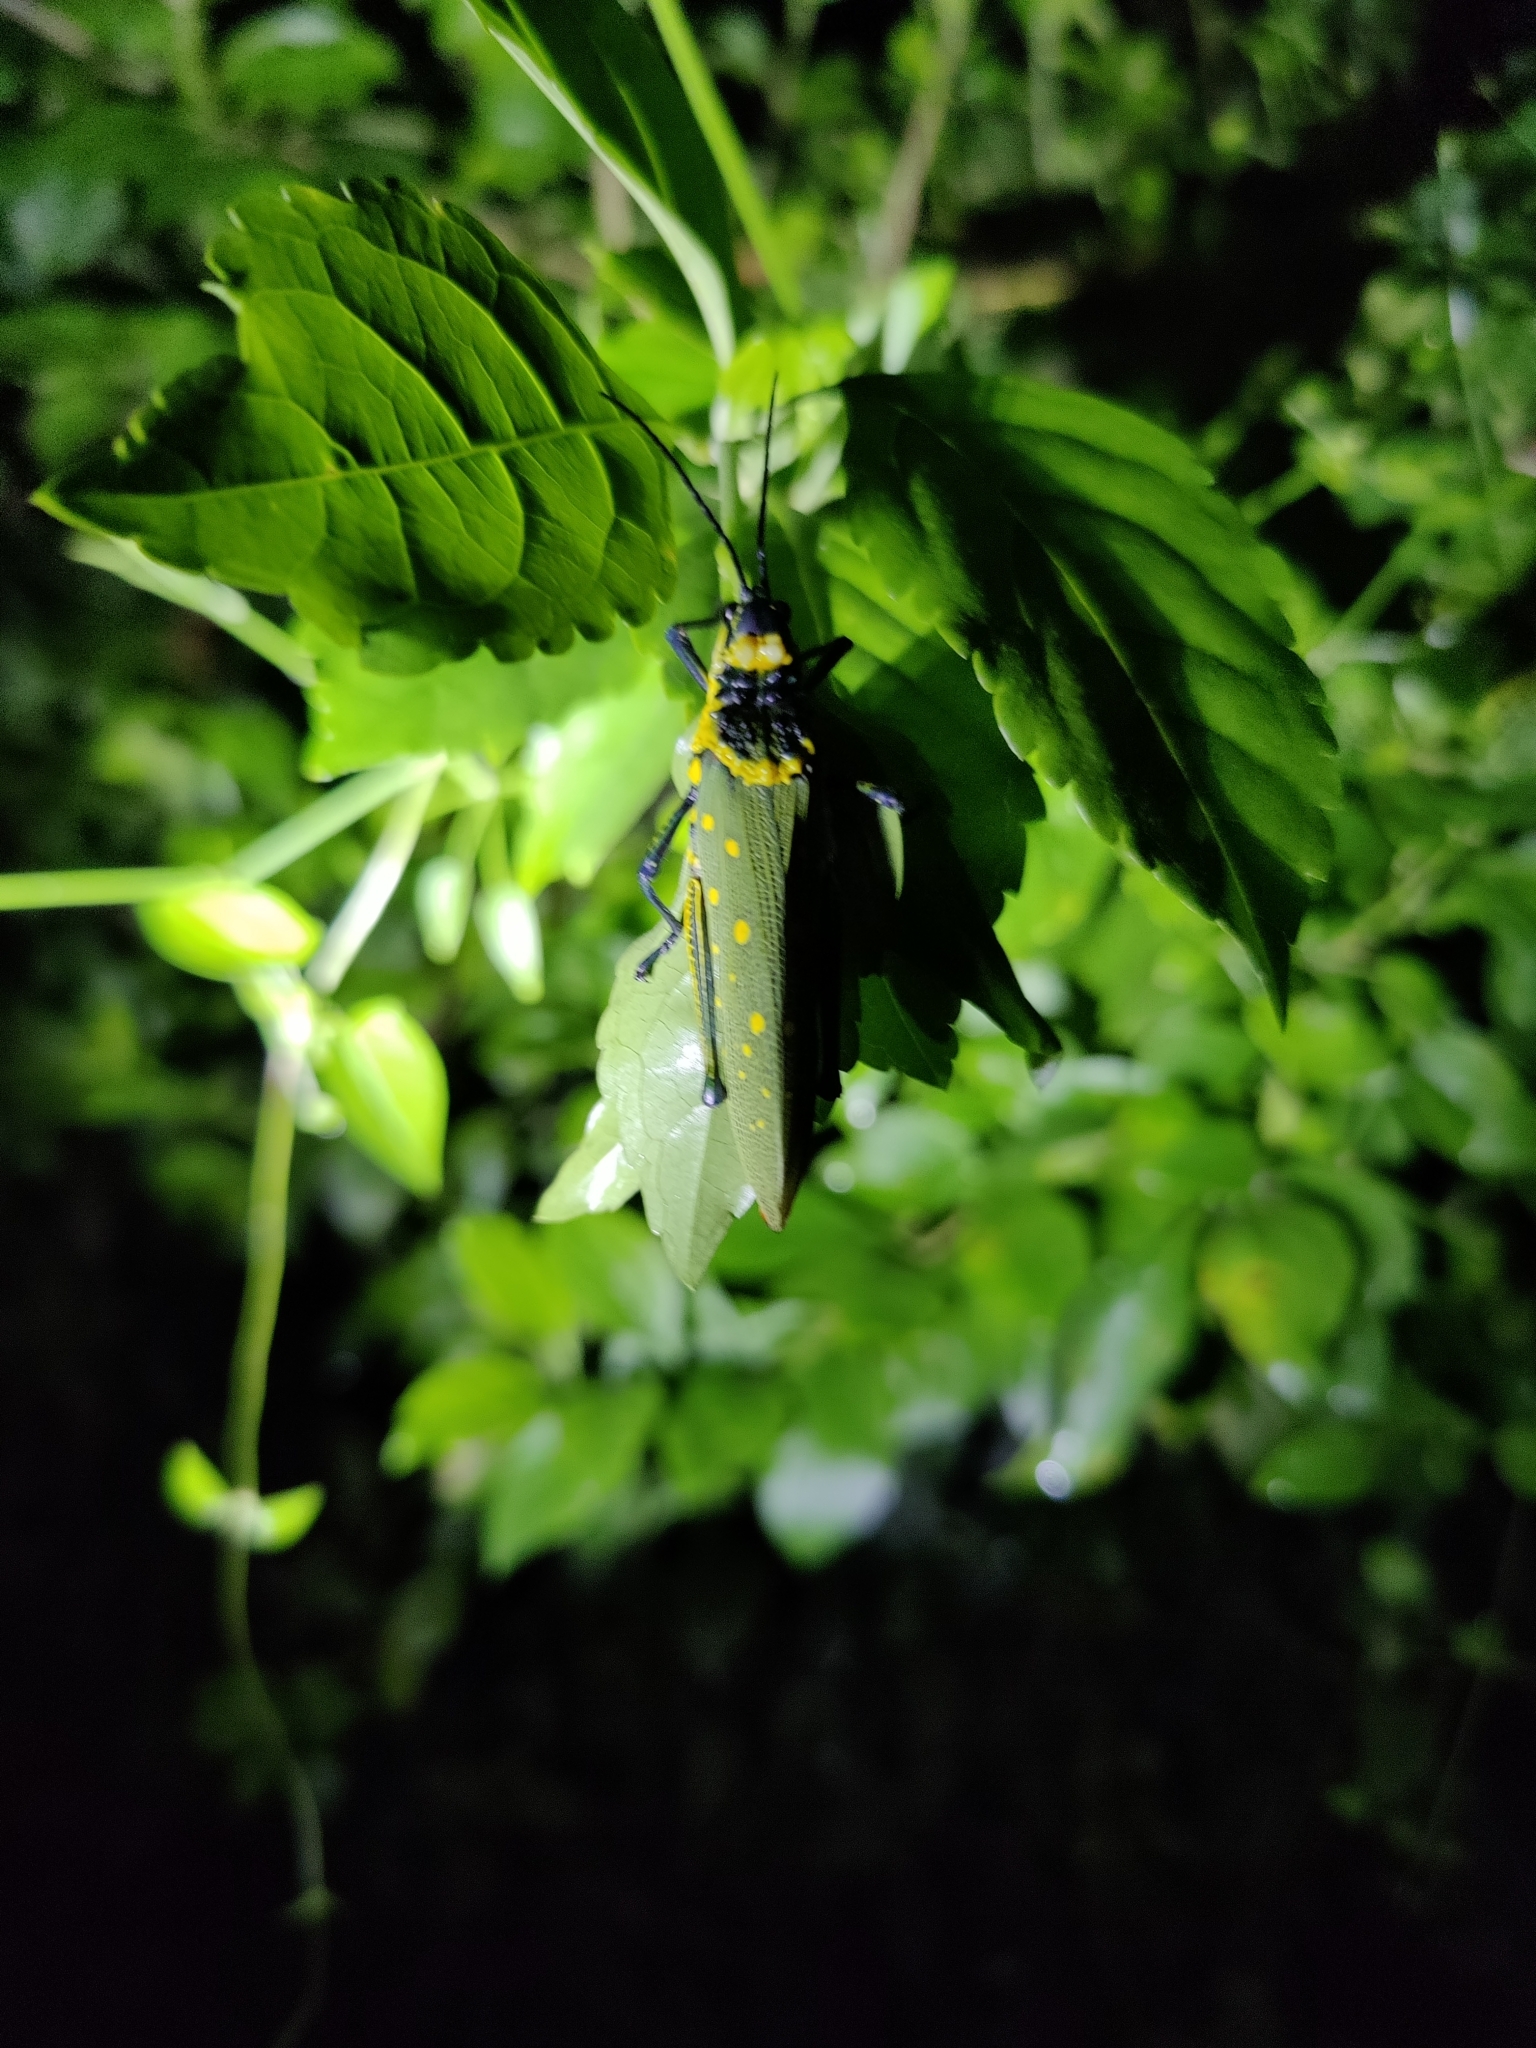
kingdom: Animalia
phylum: Arthropoda
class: Insecta
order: Orthoptera
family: Pyrgomorphidae
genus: Aularches
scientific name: Aularches miliaris
